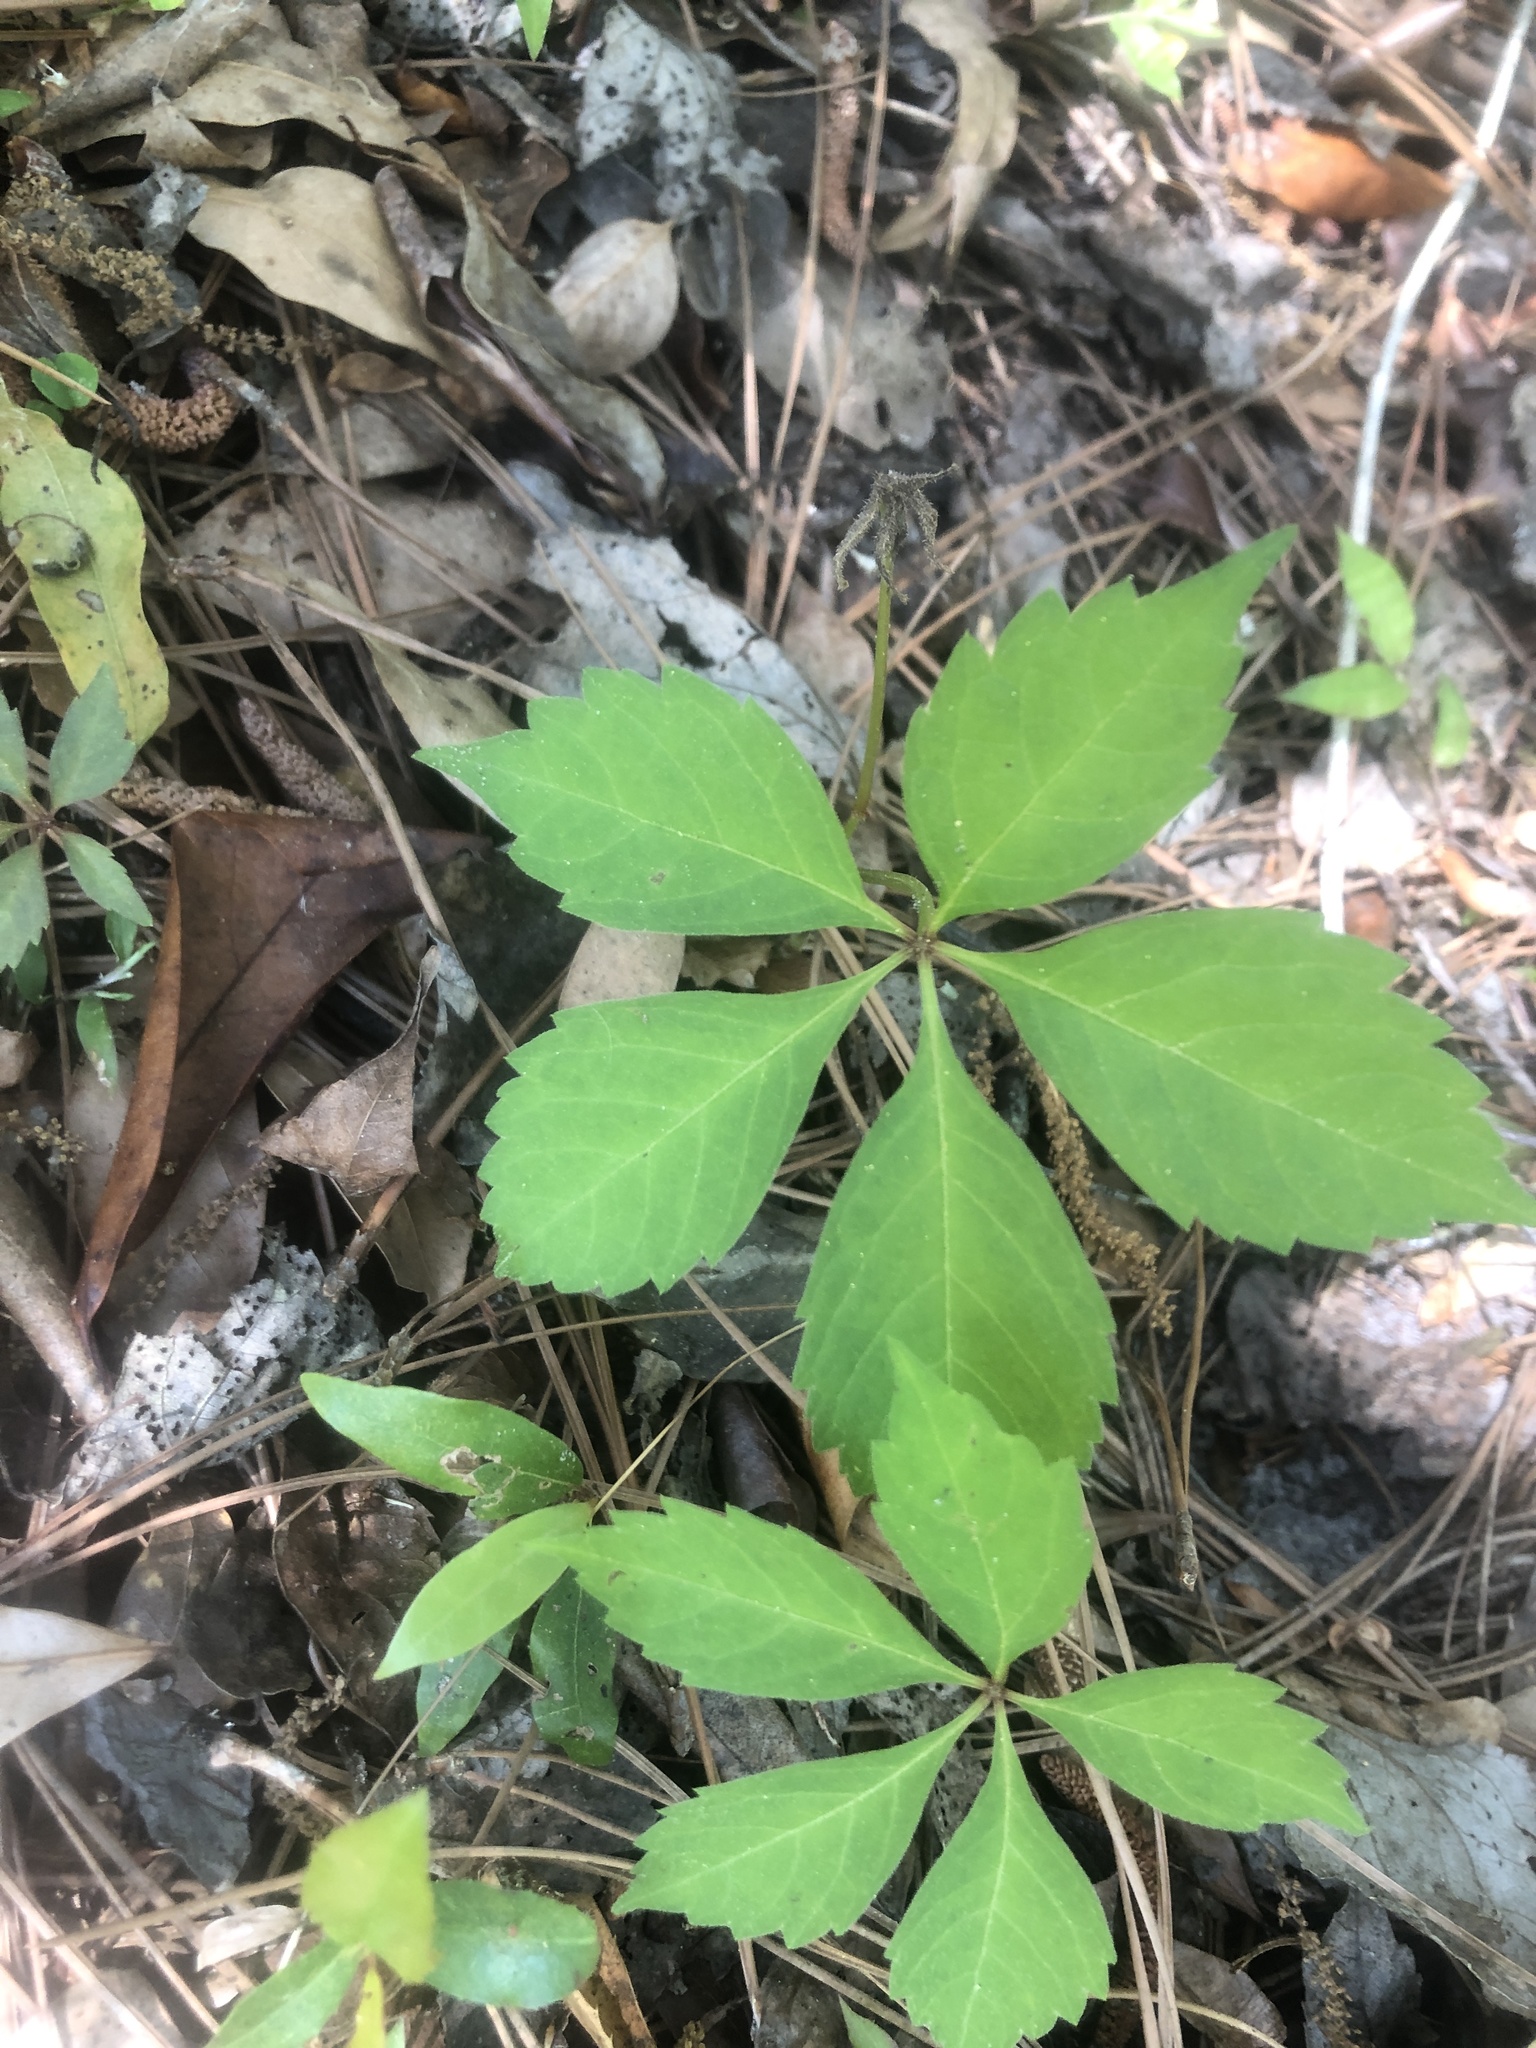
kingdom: Plantae
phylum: Tracheophyta
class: Magnoliopsida
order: Vitales
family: Vitaceae
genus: Parthenocissus
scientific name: Parthenocissus quinquefolia
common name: Virginia-creeper
